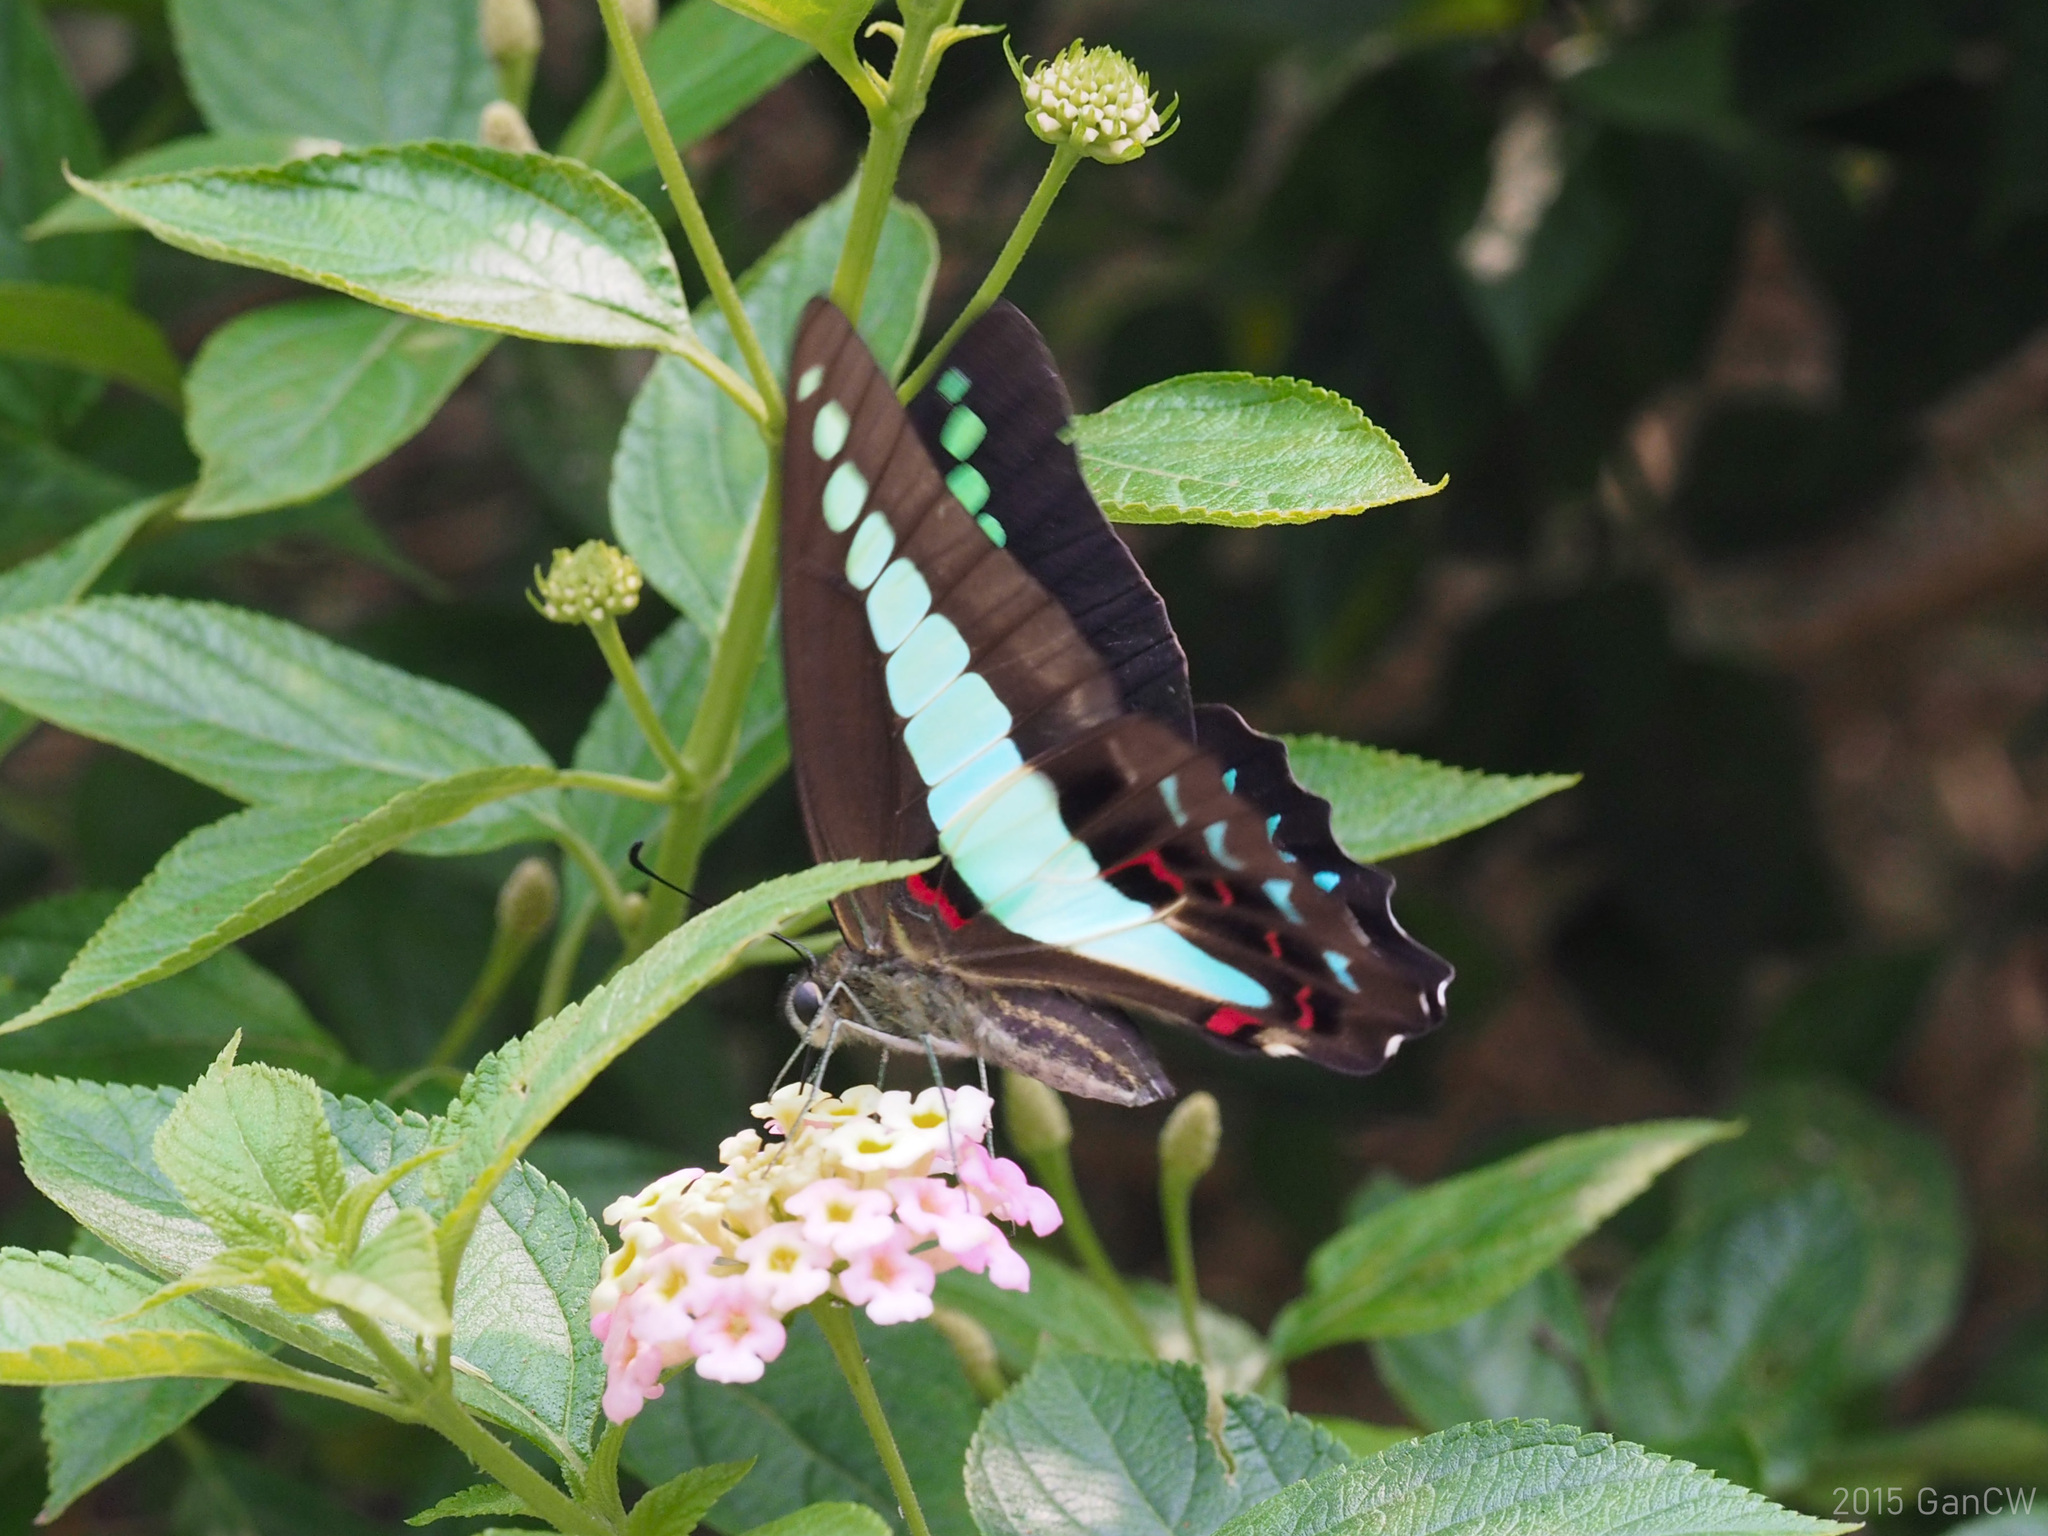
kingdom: Fungi
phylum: Ascomycota
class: Sordariomycetes
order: Microascales
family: Microascaceae
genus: Graphium
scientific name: Graphium sarpedon
